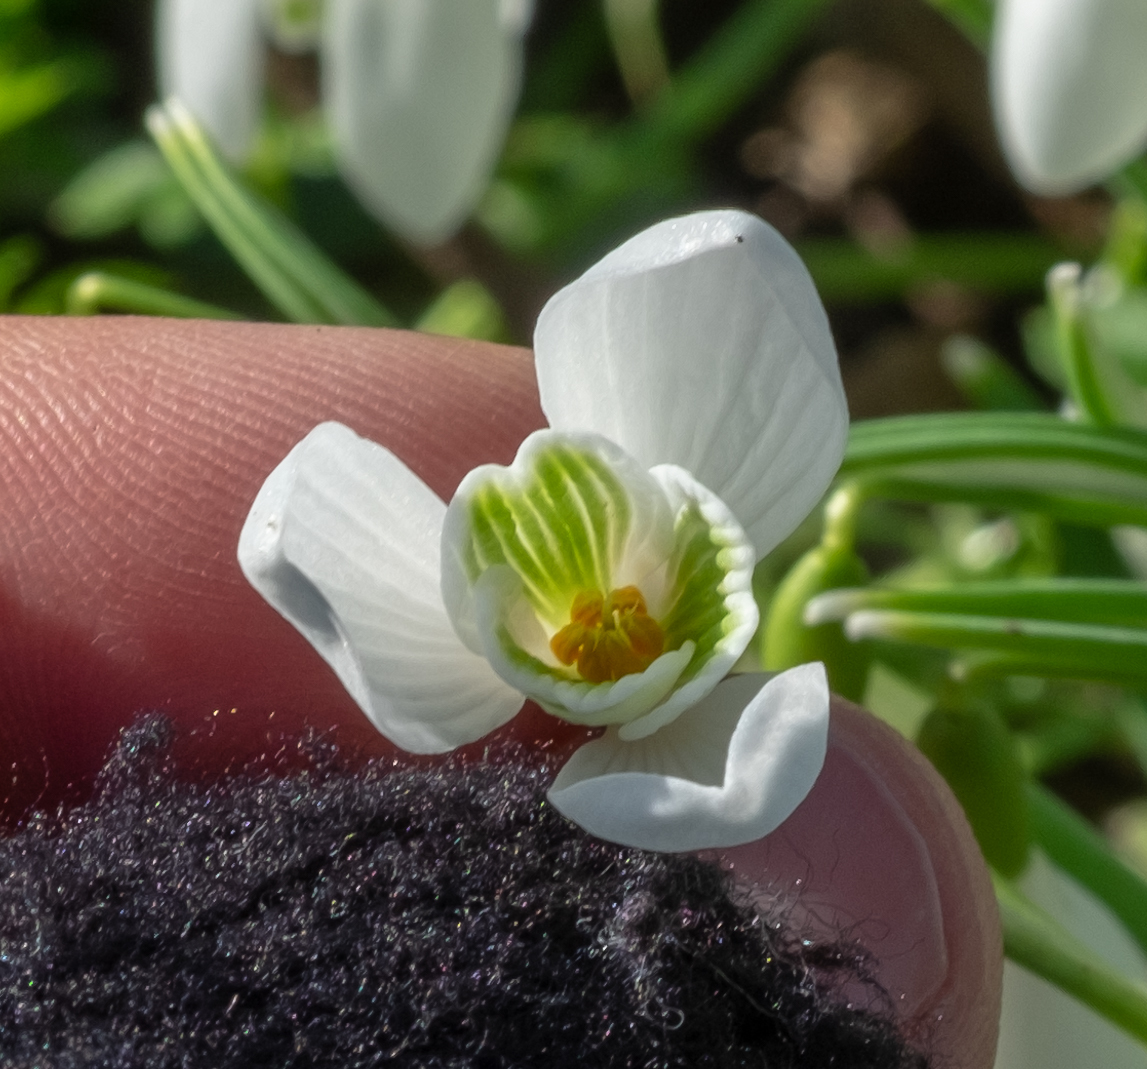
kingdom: Plantae
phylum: Tracheophyta
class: Liliopsida
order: Asparagales
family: Amaryllidaceae
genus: Galanthus
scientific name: Galanthus nivalis
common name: Snowdrop
